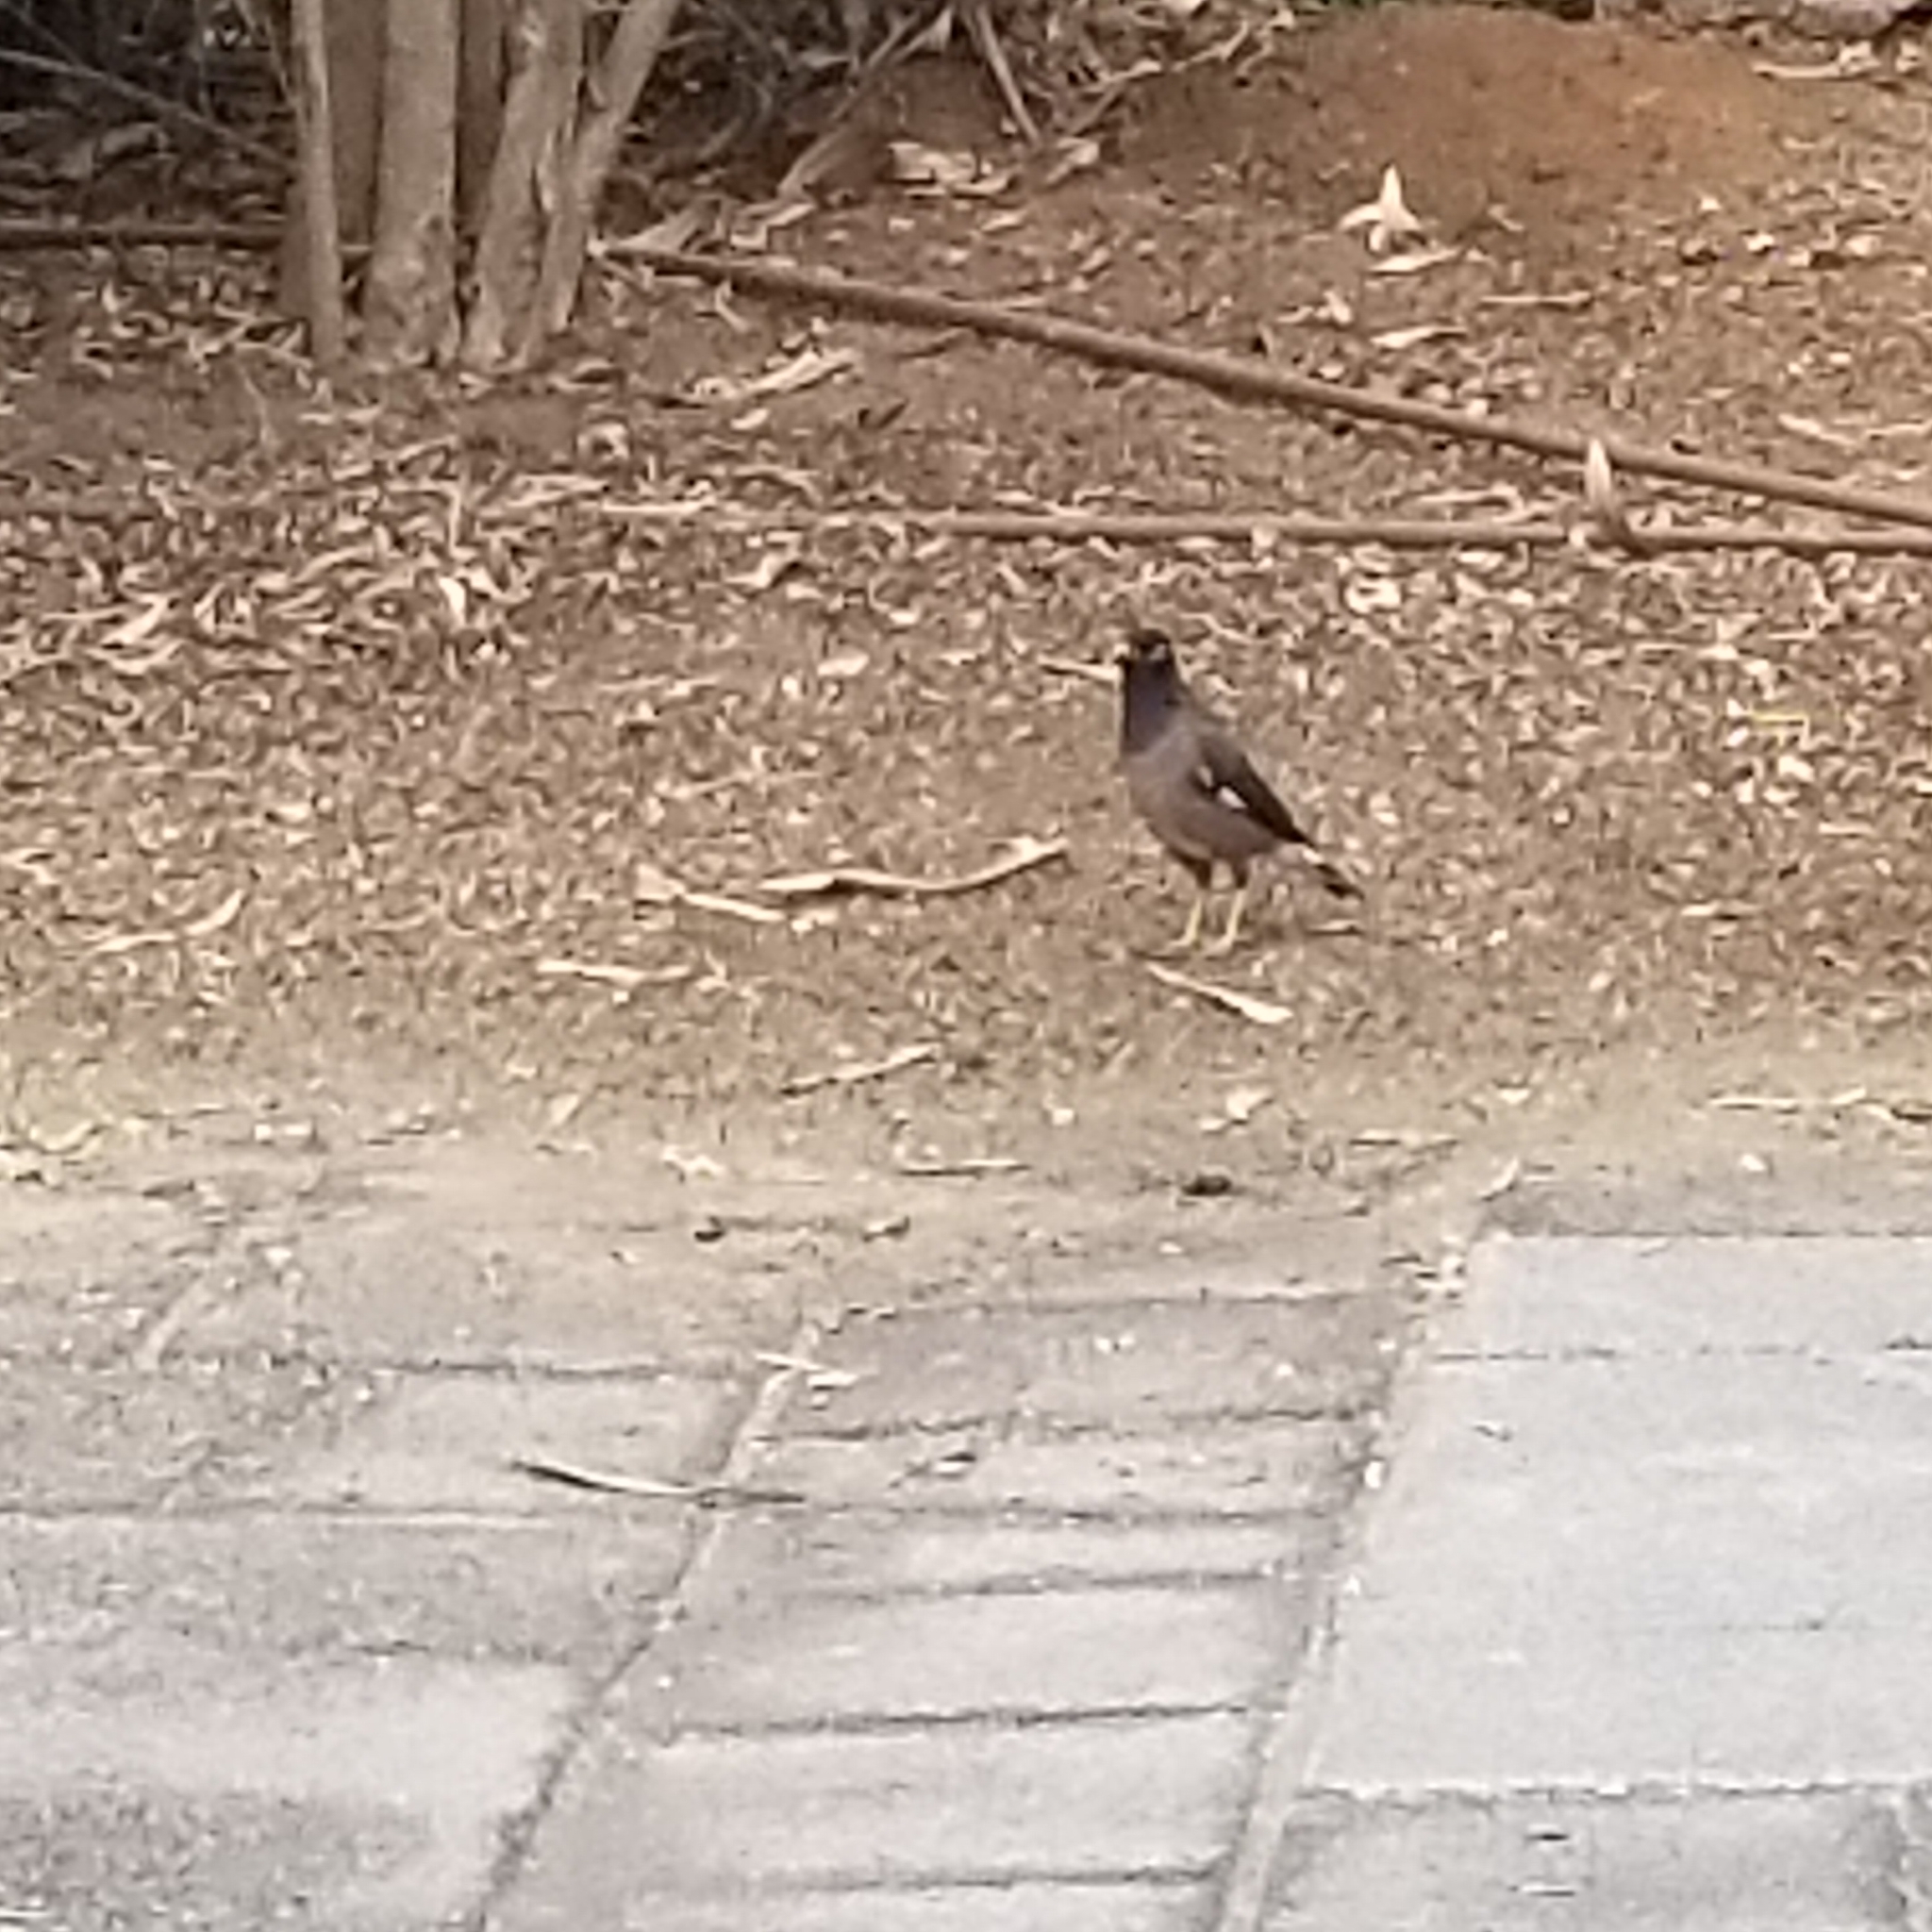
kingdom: Animalia
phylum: Chordata
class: Aves
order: Passeriformes
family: Sturnidae
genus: Acridotheres
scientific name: Acridotheres tristis
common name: Common myna
